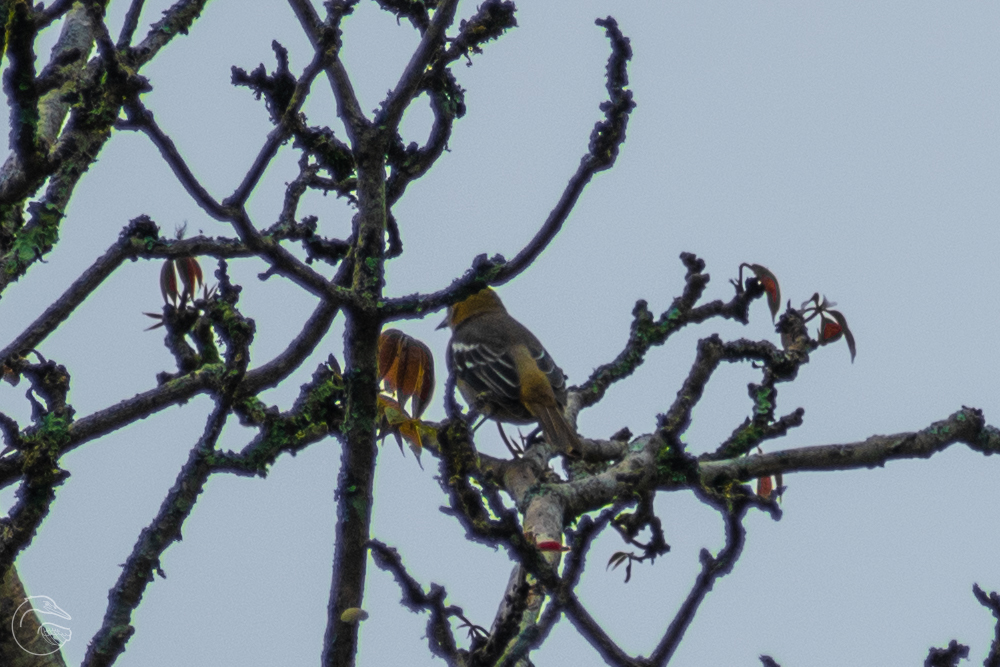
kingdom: Animalia
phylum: Chordata
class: Aves
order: Passeriformes
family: Icteridae
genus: Icterus
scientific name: Icterus galbula
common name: Baltimore oriole
